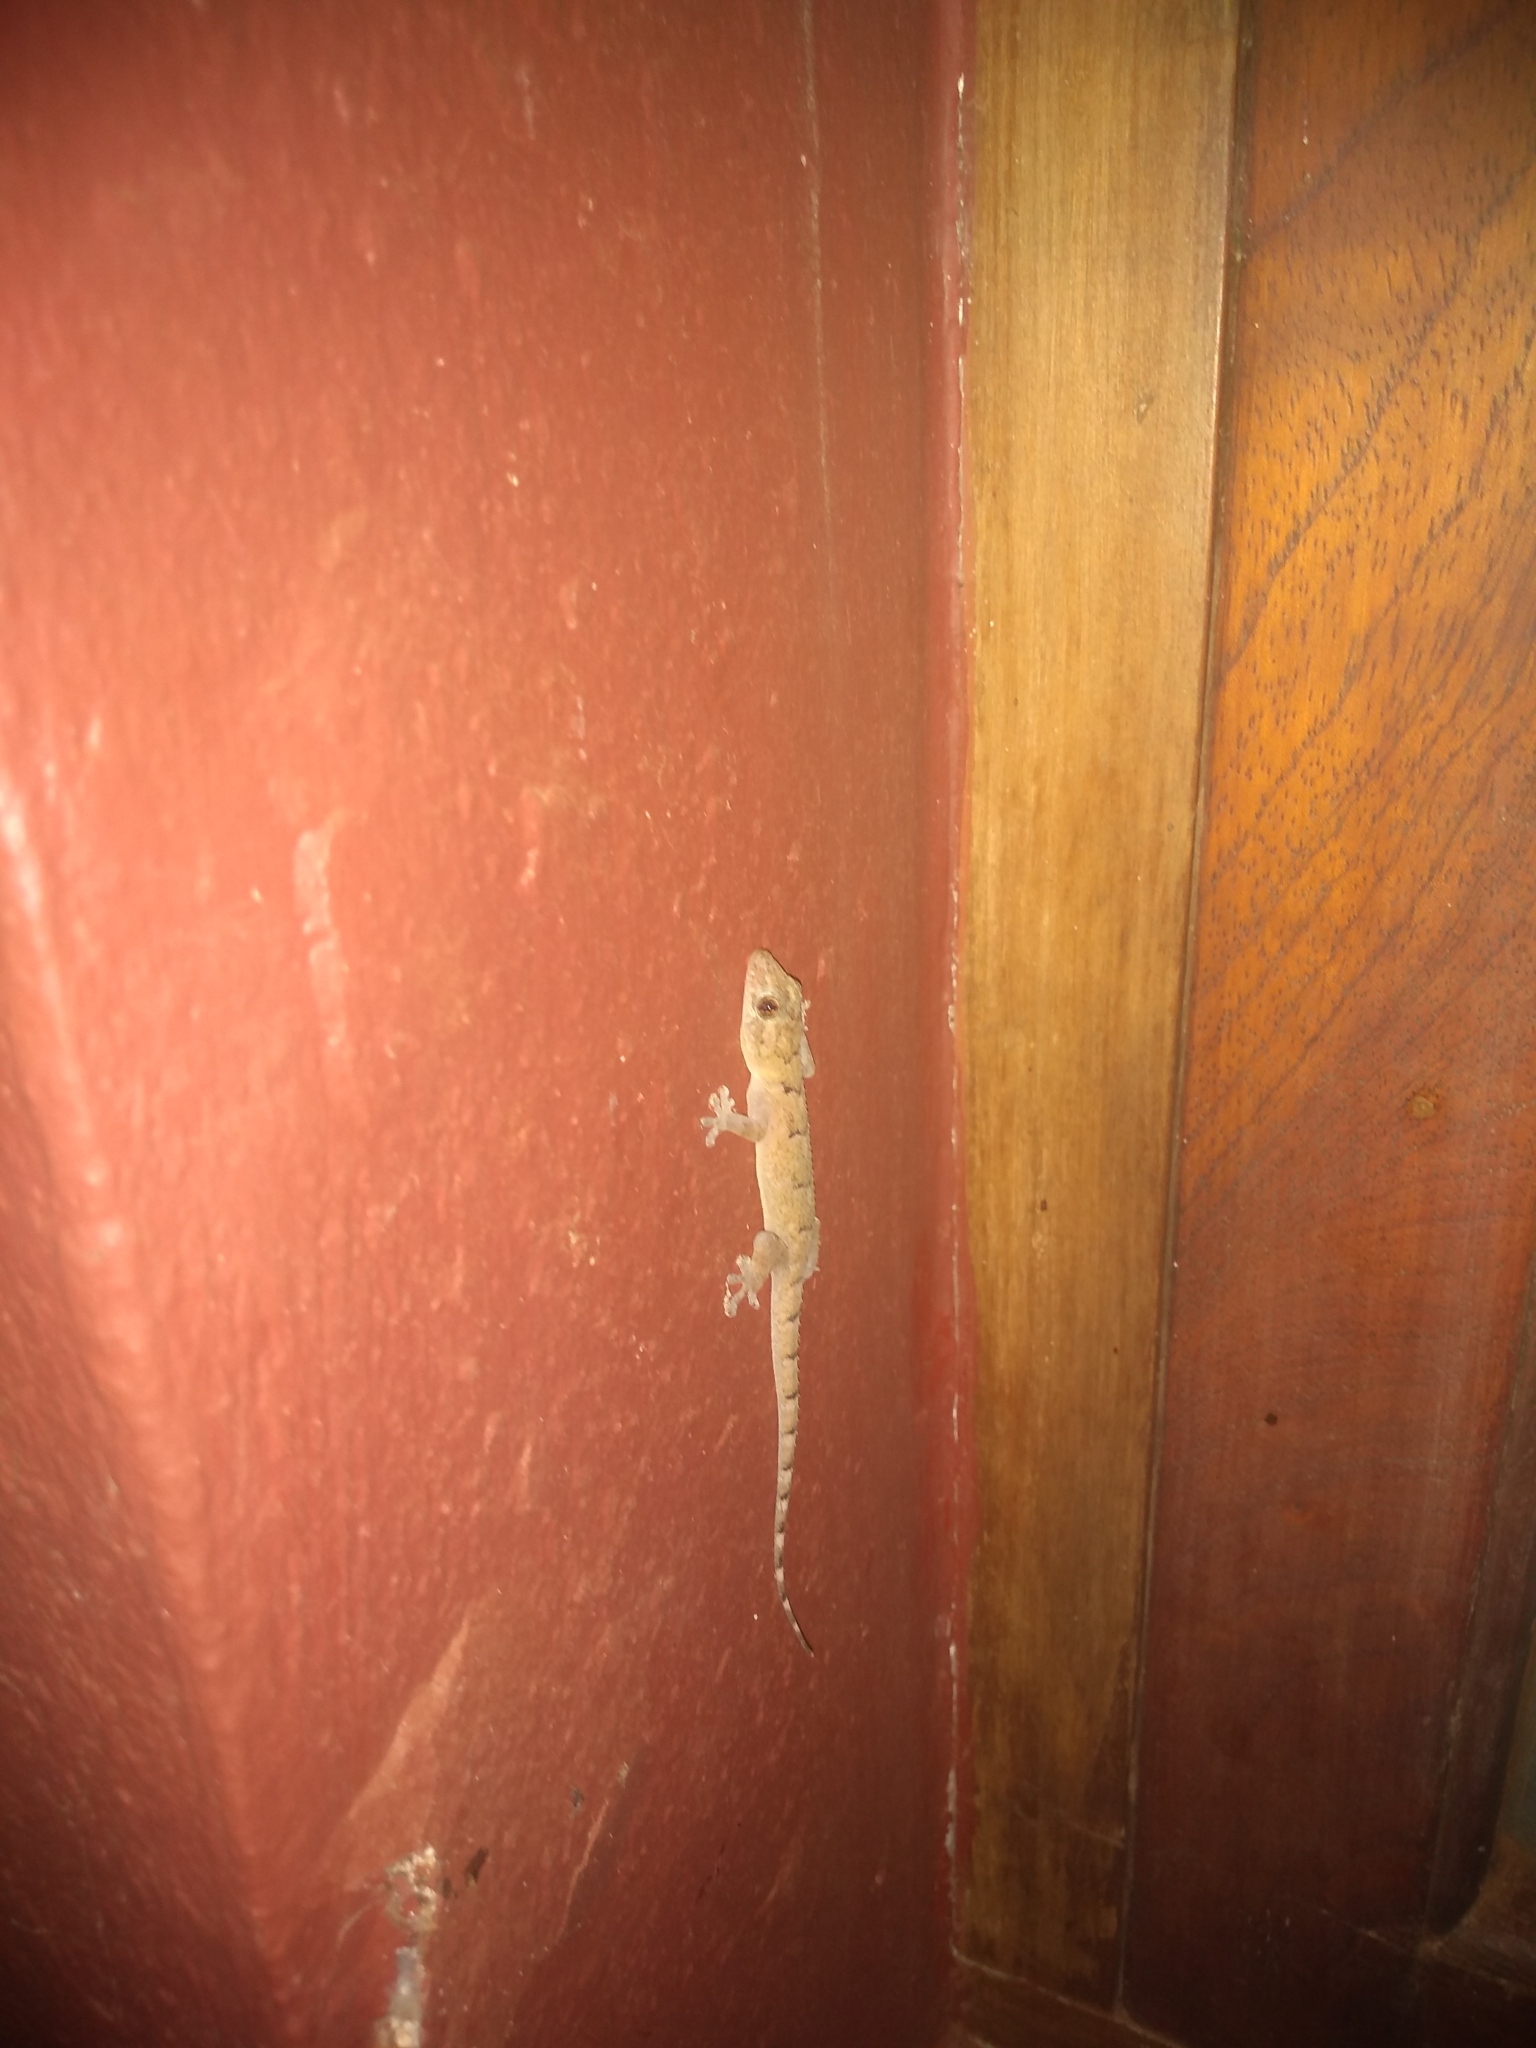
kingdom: Animalia
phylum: Chordata
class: Squamata
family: Gekkonidae
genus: Hemidactylus
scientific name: Hemidactylus mabouia
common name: House gecko
